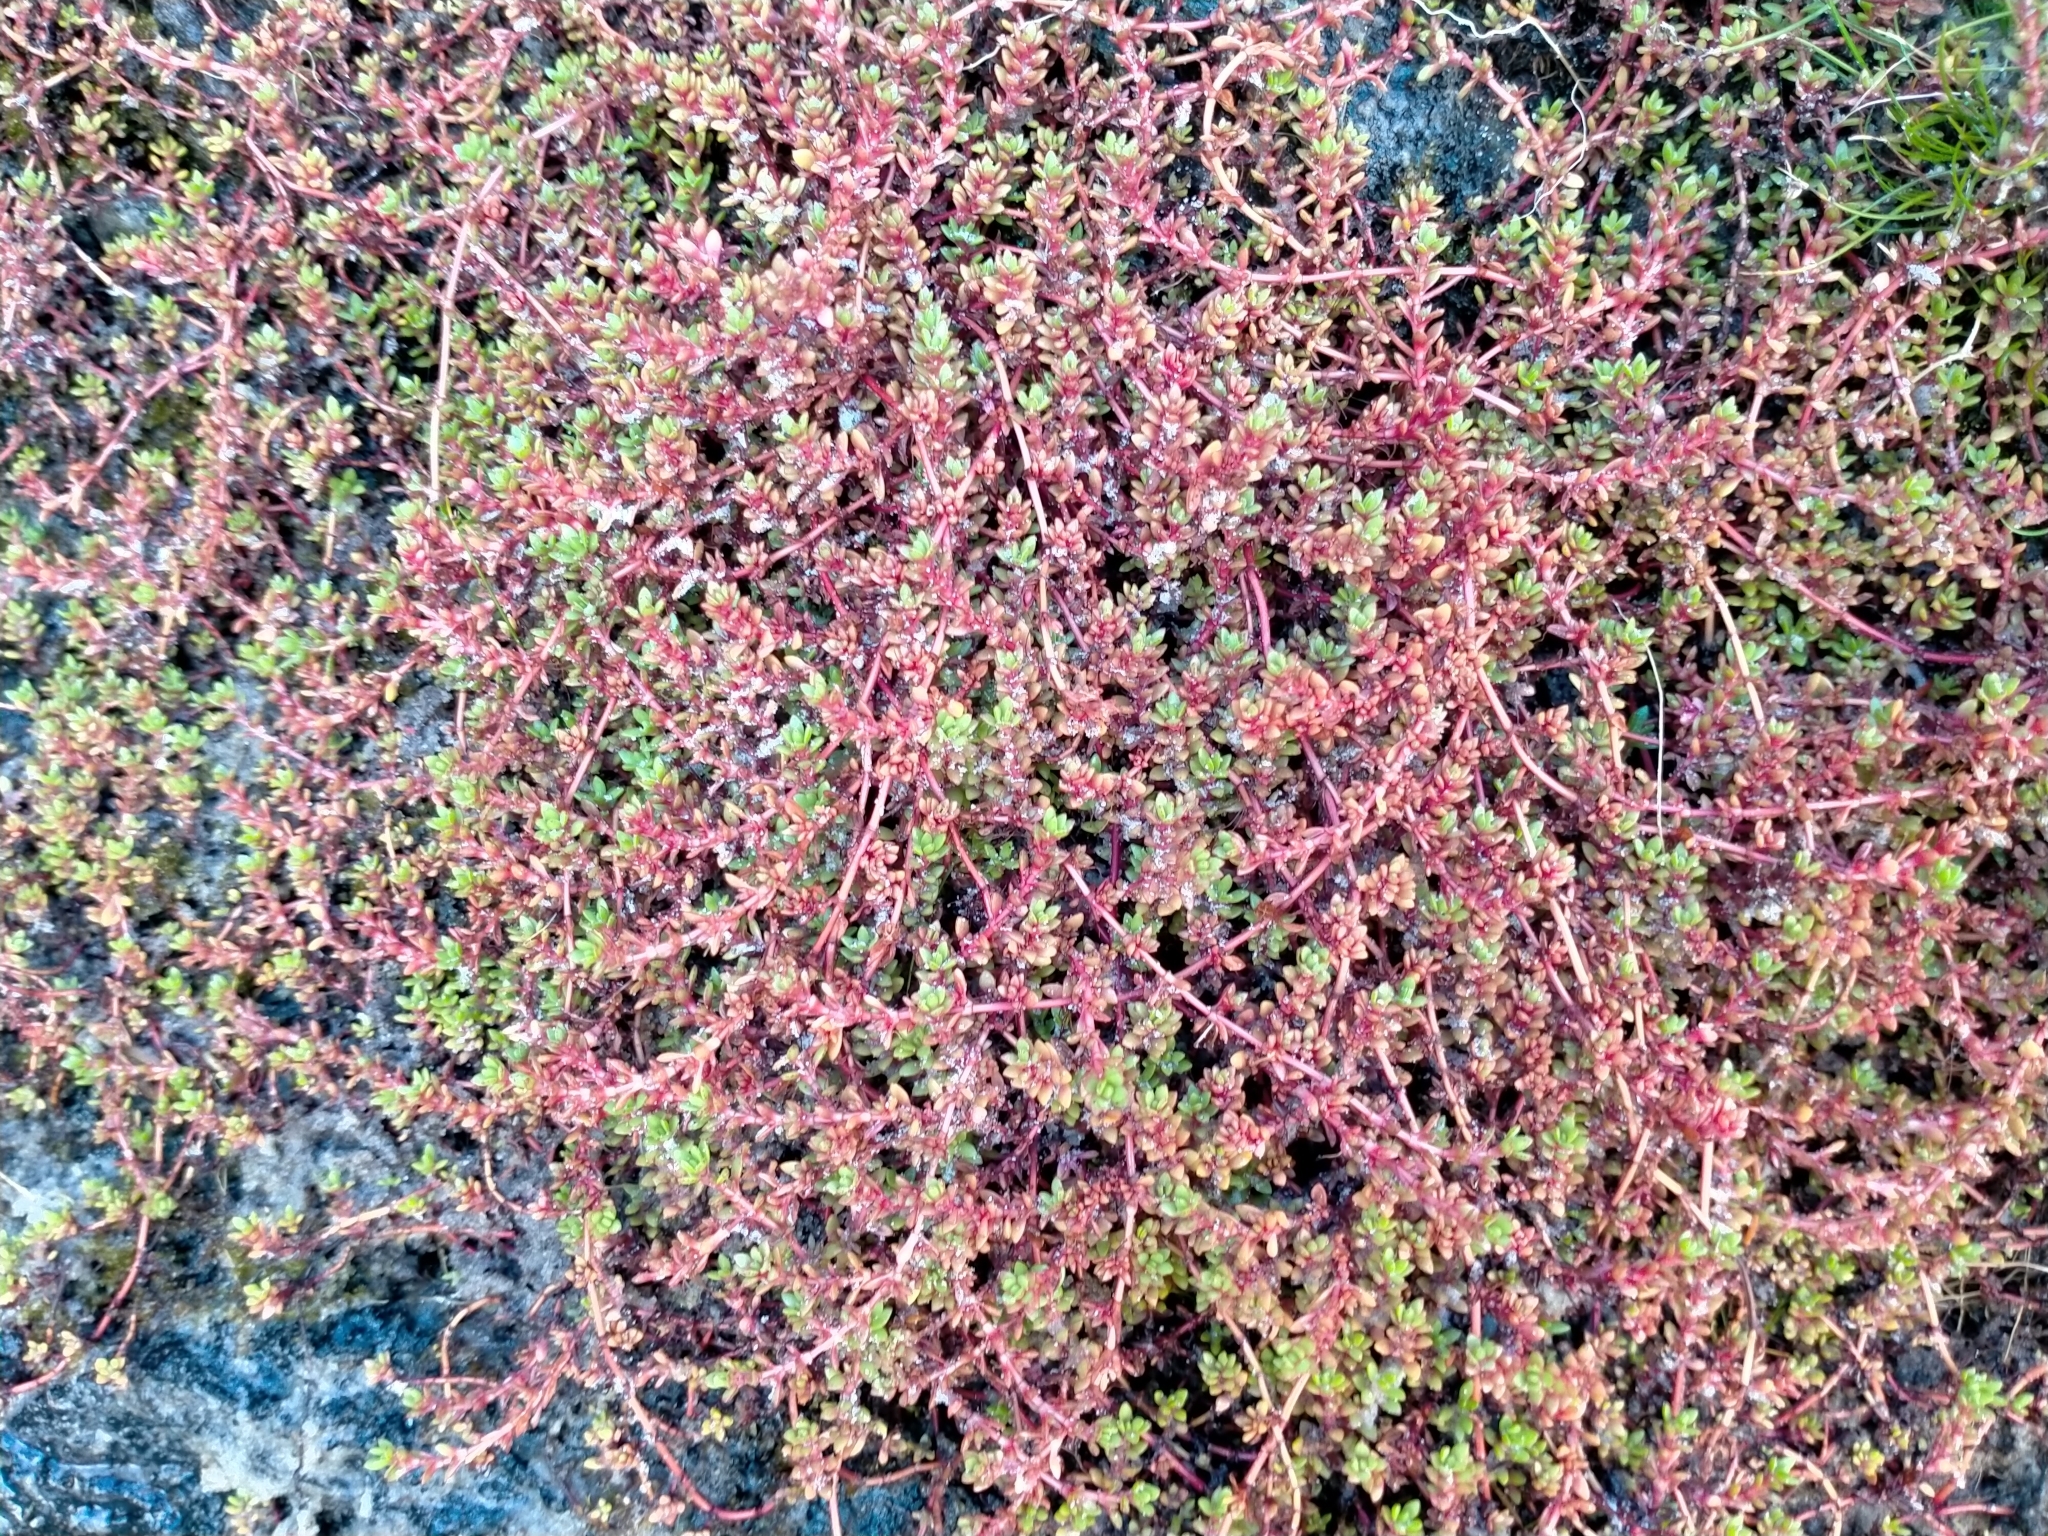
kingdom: Plantae
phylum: Tracheophyta
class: Magnoliopsida
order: Saxifragales
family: Crassulaceae
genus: Crassula
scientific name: Crassula moschata
